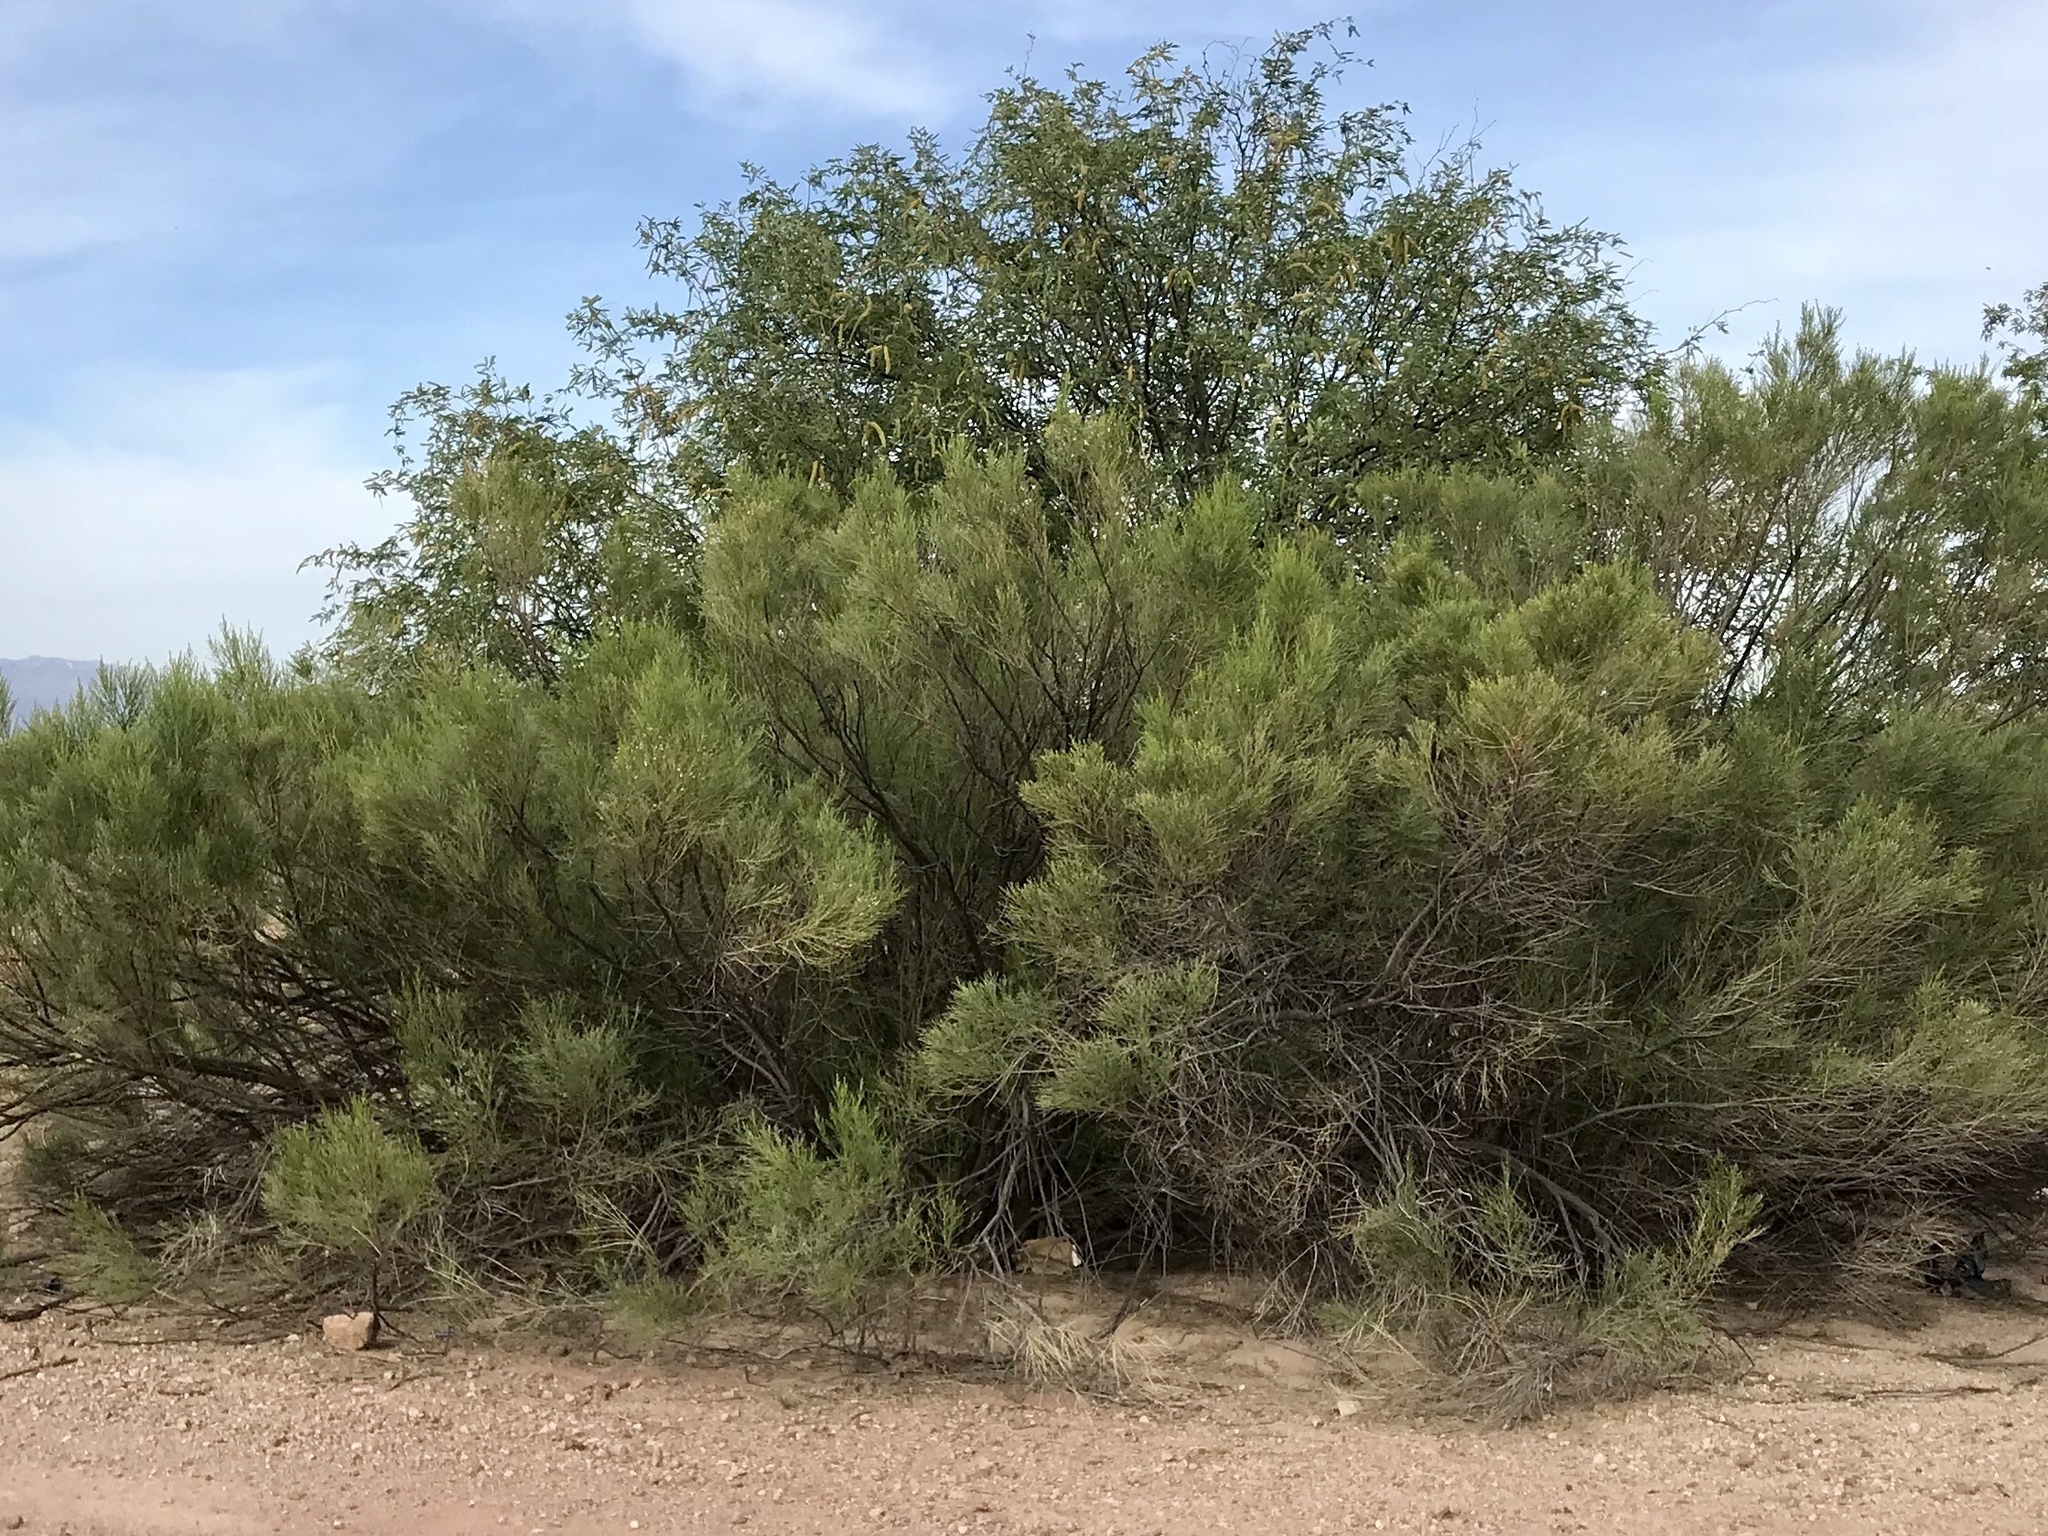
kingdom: Plantae
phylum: Tracheophyta
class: Magnoliopsida
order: Asterales
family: Asteraceae
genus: Baccharis
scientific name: Baccharis sarothroides
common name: Desert-broom
